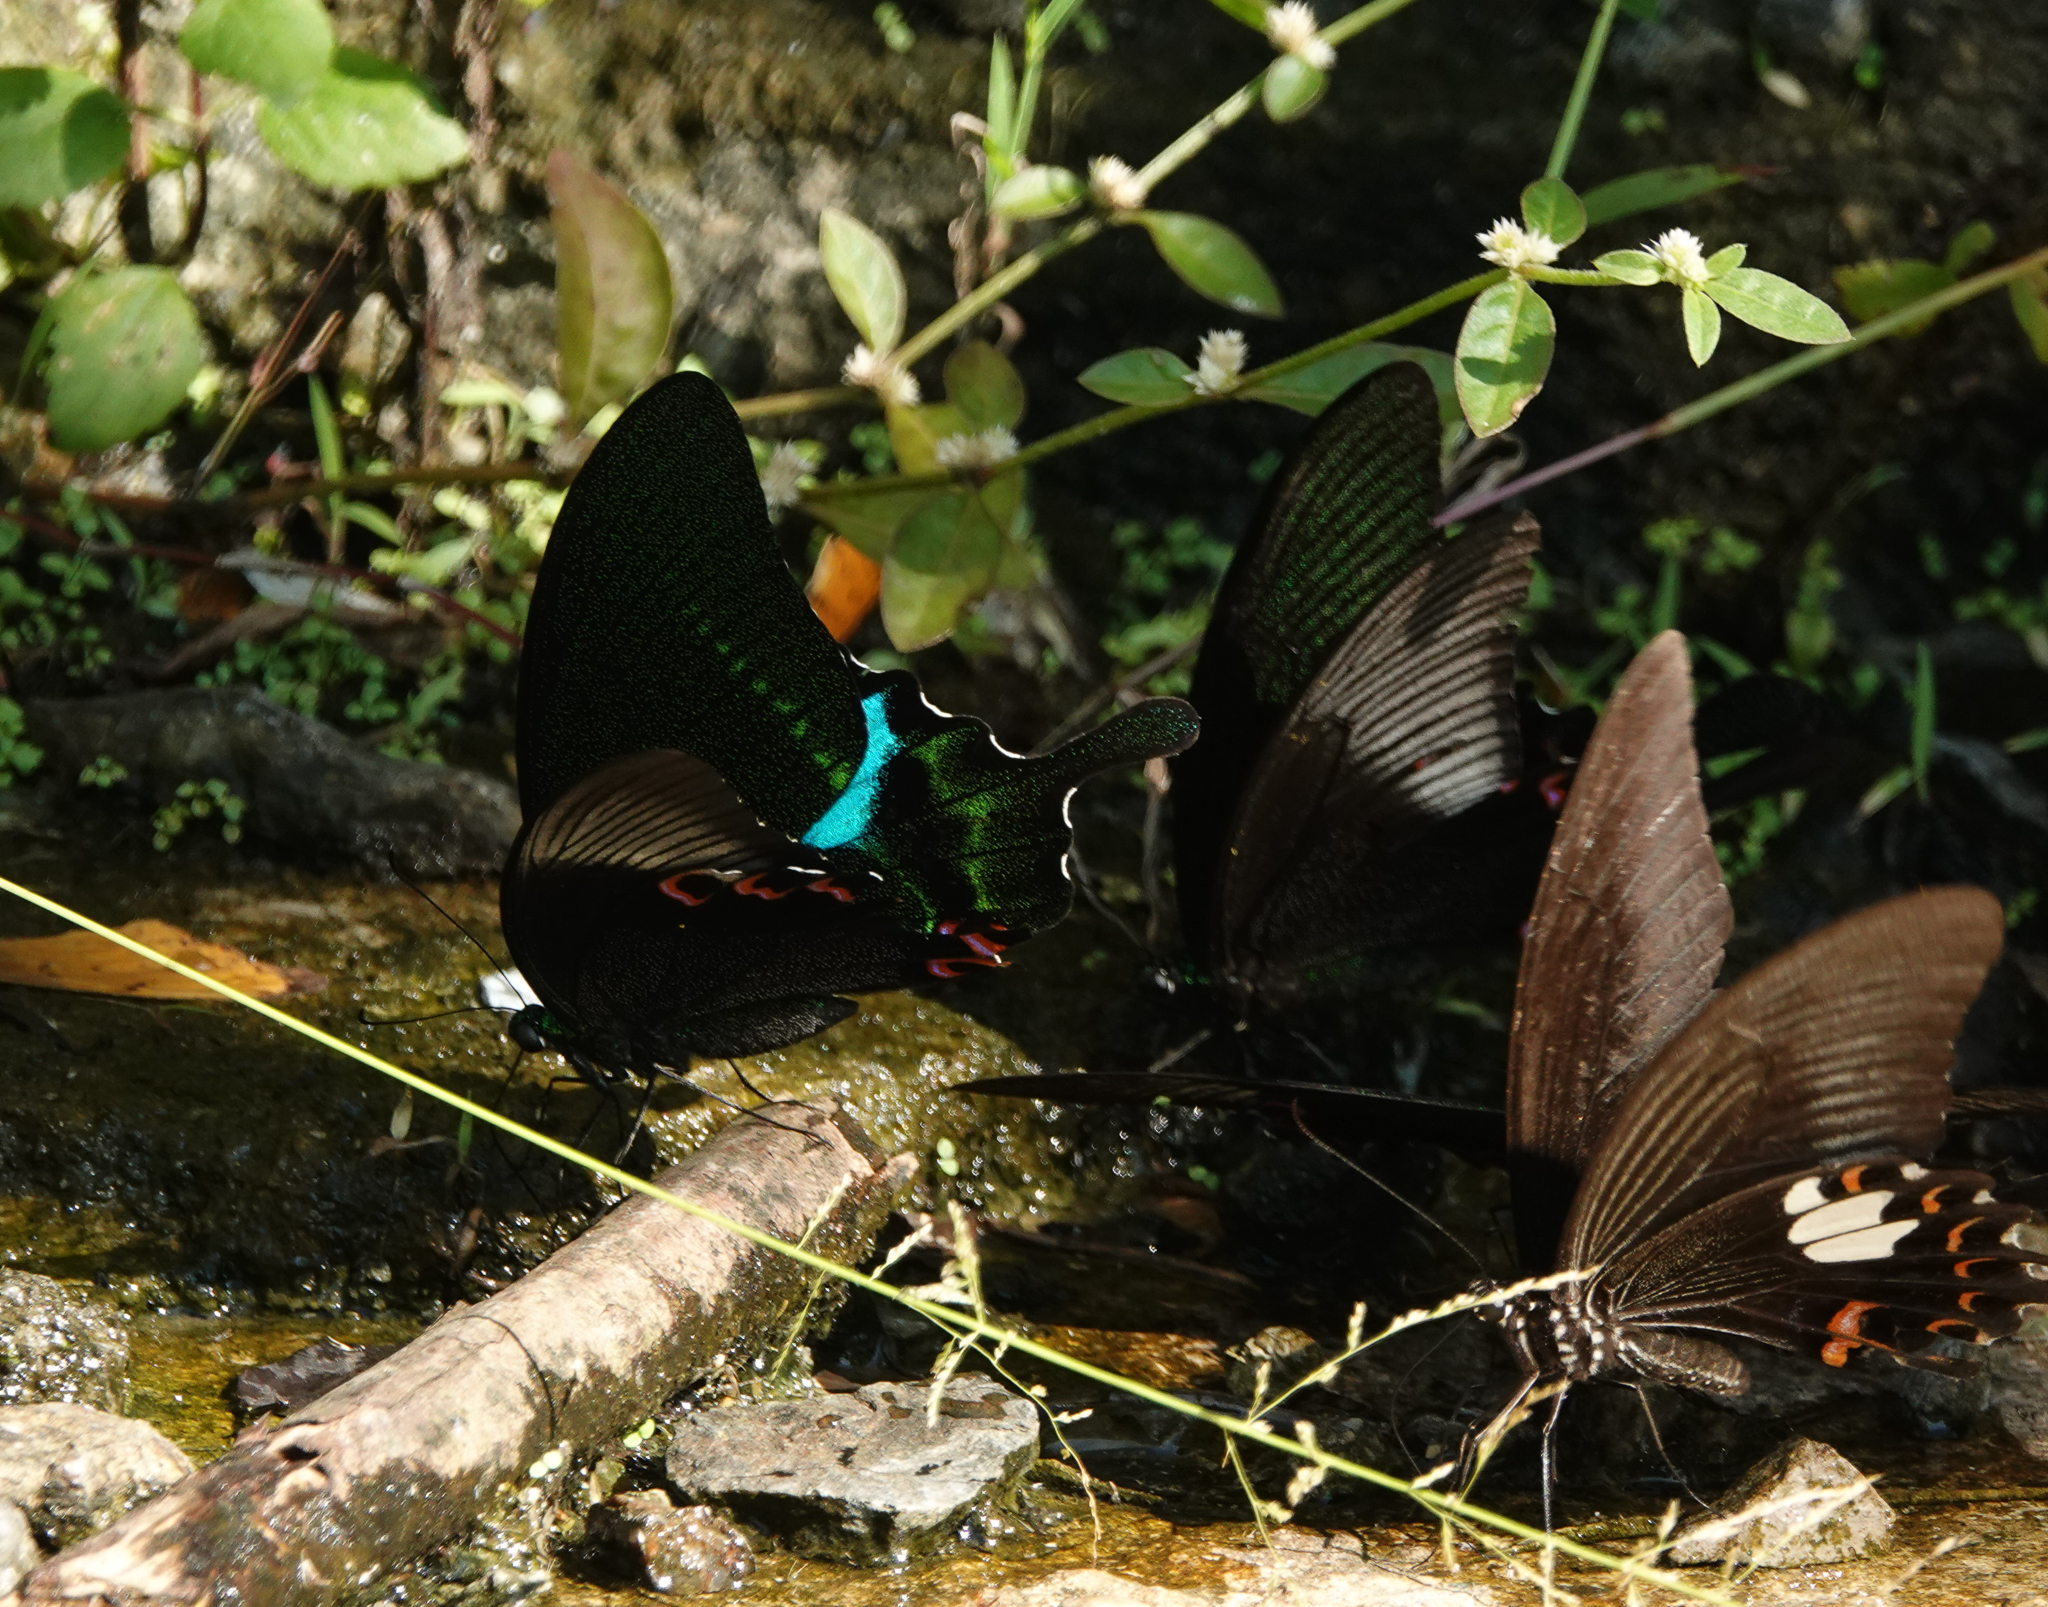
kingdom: Animalia
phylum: Arthropoda
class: Insecta
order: Lepidoptera
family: Papilionidae
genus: Papilio
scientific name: Papilio paris
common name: Paris peacock
